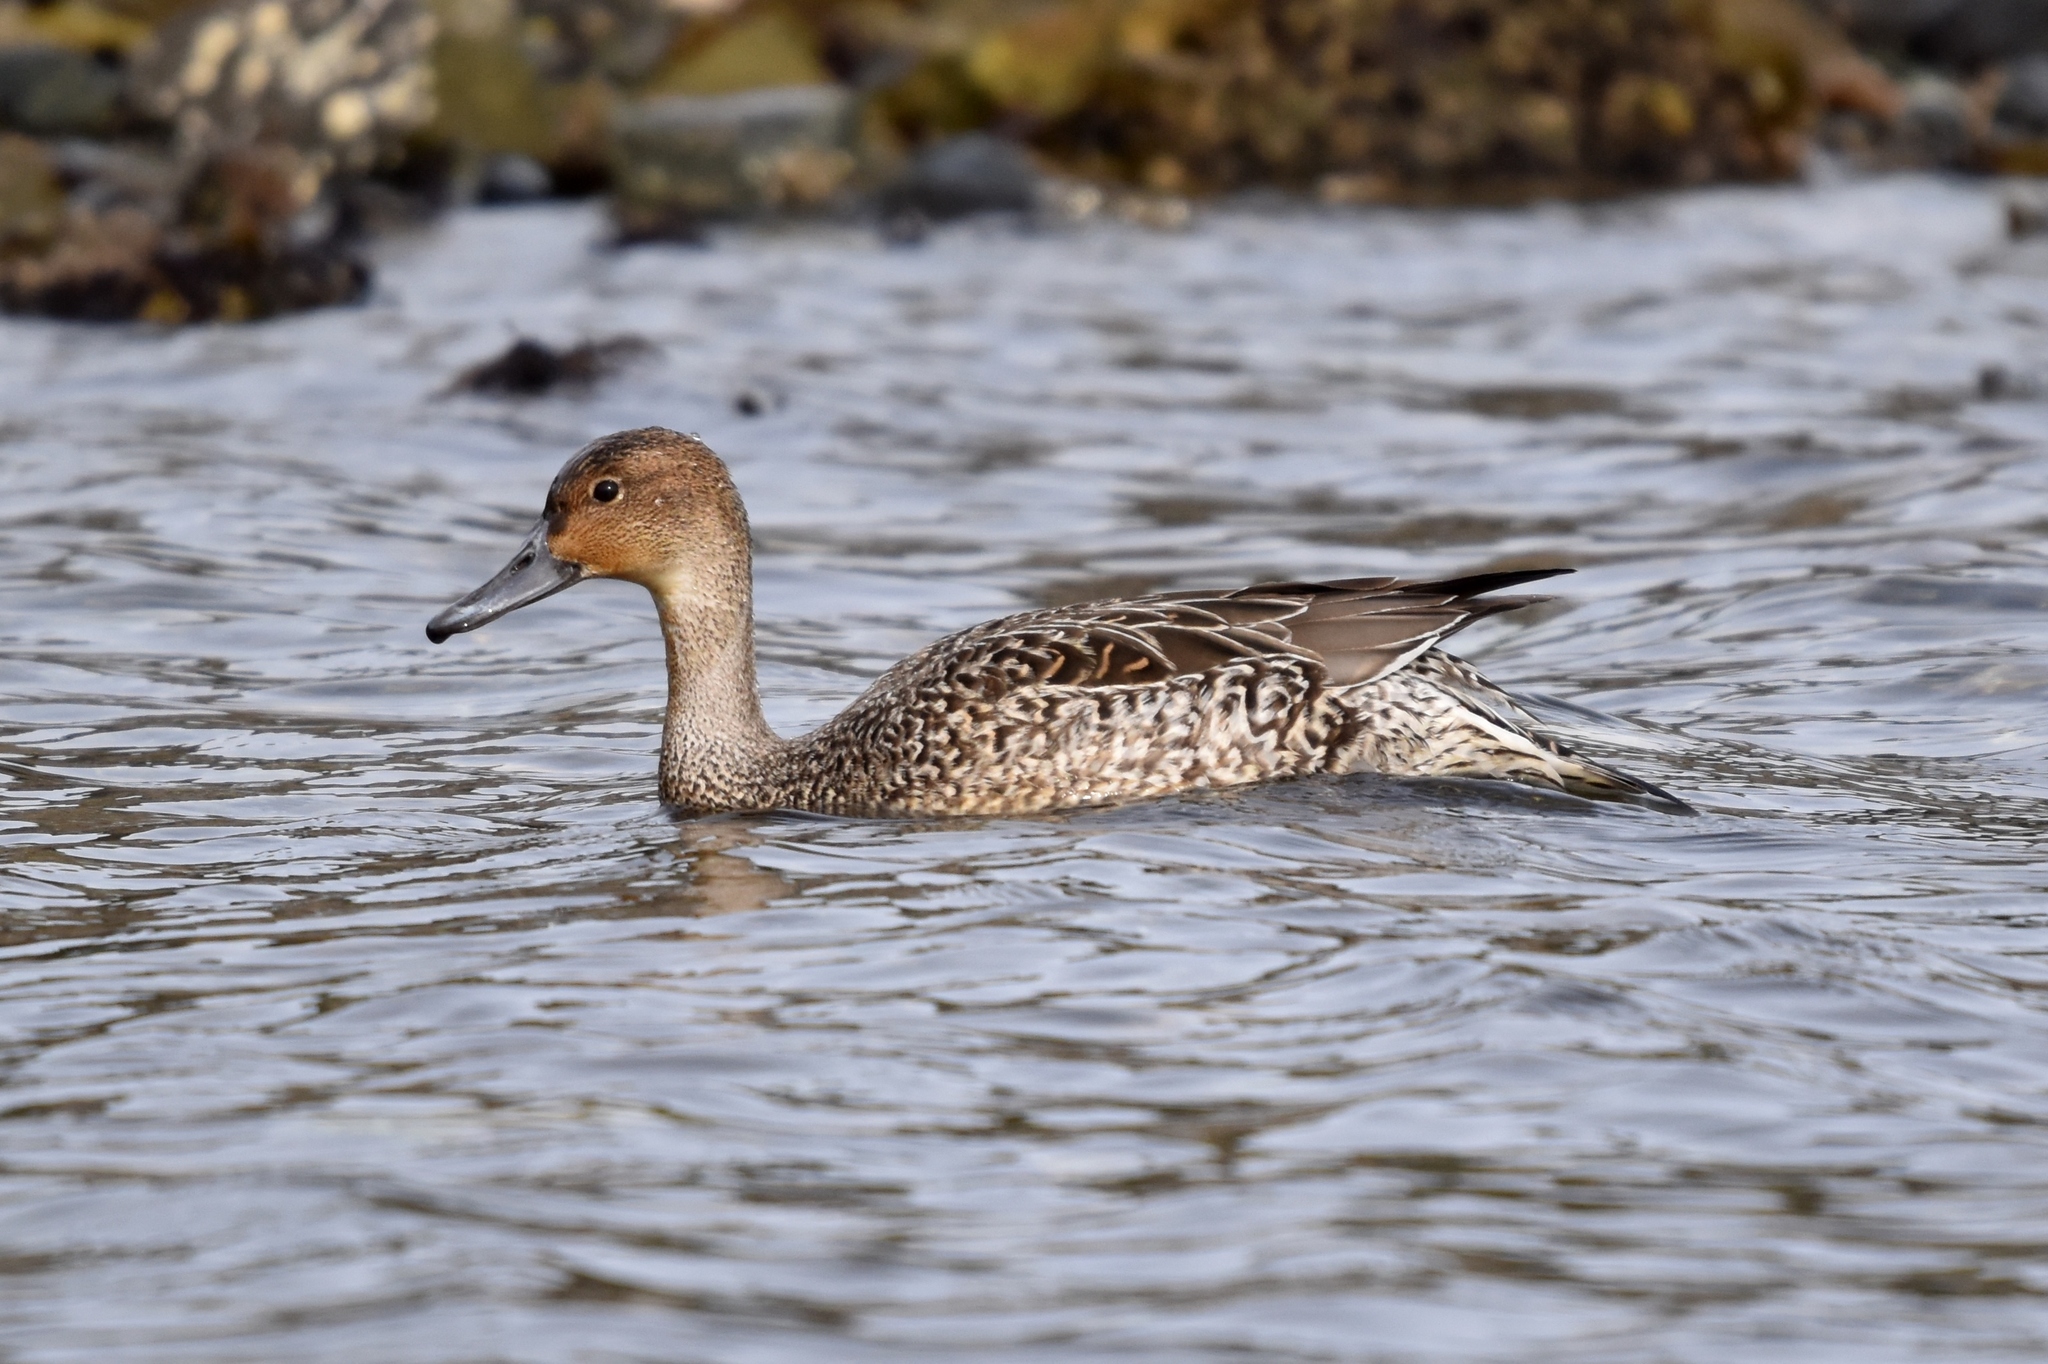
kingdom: Animalia
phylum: Chordata
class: Aves
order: Anseriformes
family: Anatidae
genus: Anas
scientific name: Anas acuta
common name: Northern pintail
